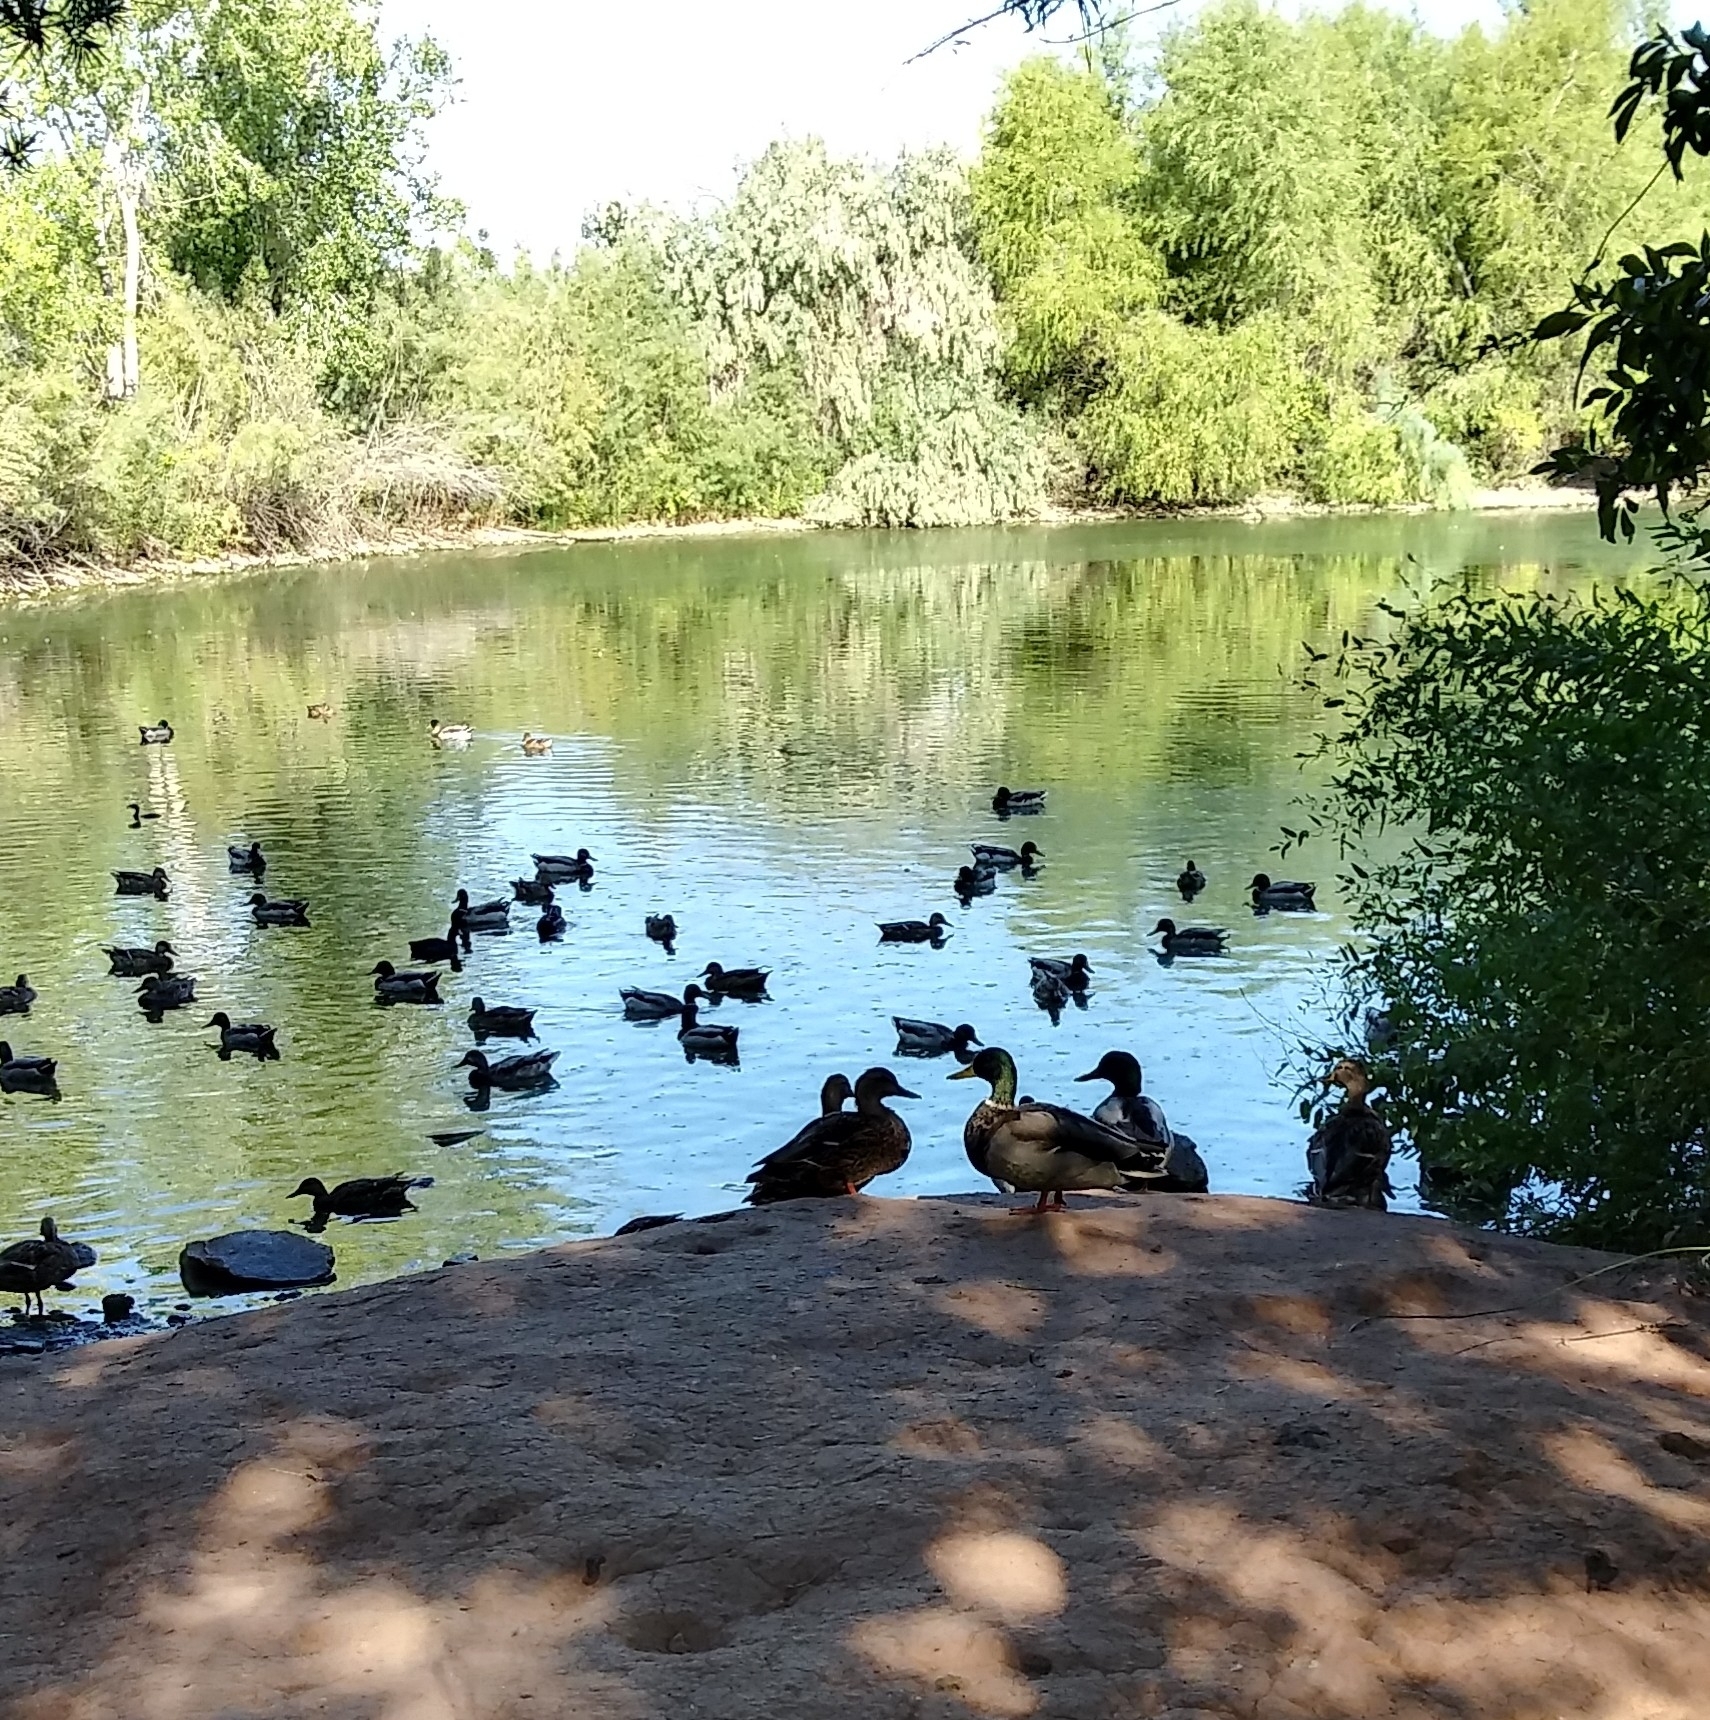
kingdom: Animalia
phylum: Chordata
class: Aves
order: Anseriformes
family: Anatidae
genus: Anas
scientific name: Anas platyrhynchos
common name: Mallard
